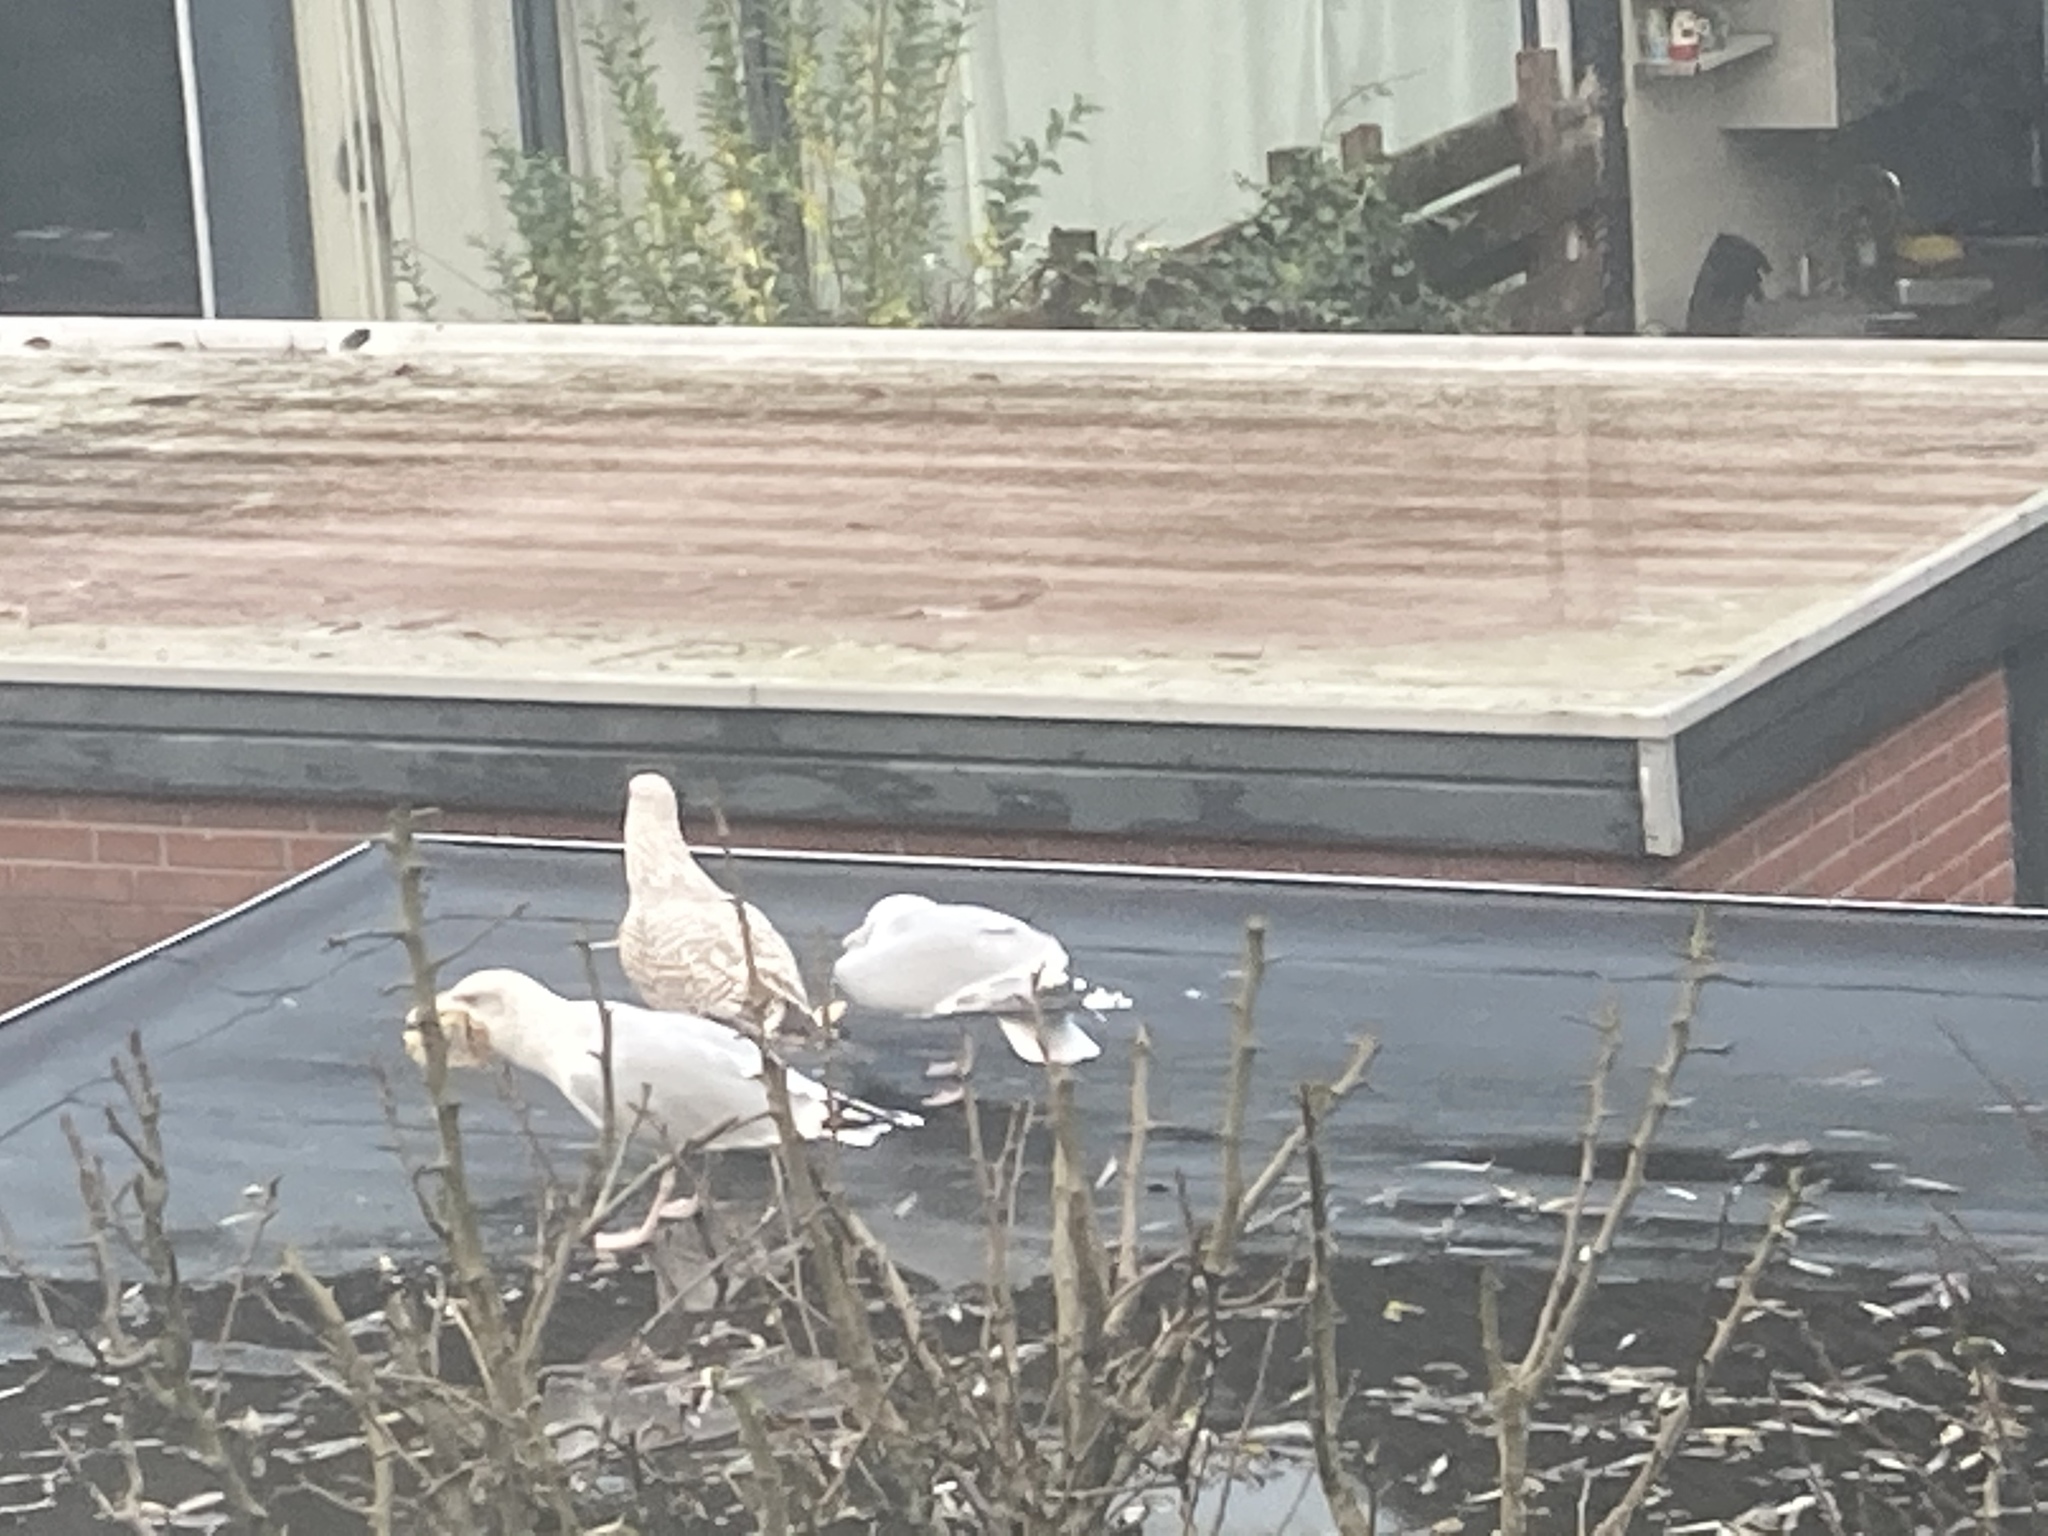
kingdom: Animalia
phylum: Chordata
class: Aves
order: Charadriiformes
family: Laridae
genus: Larus
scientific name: Larus argentatus
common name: Herring gull
